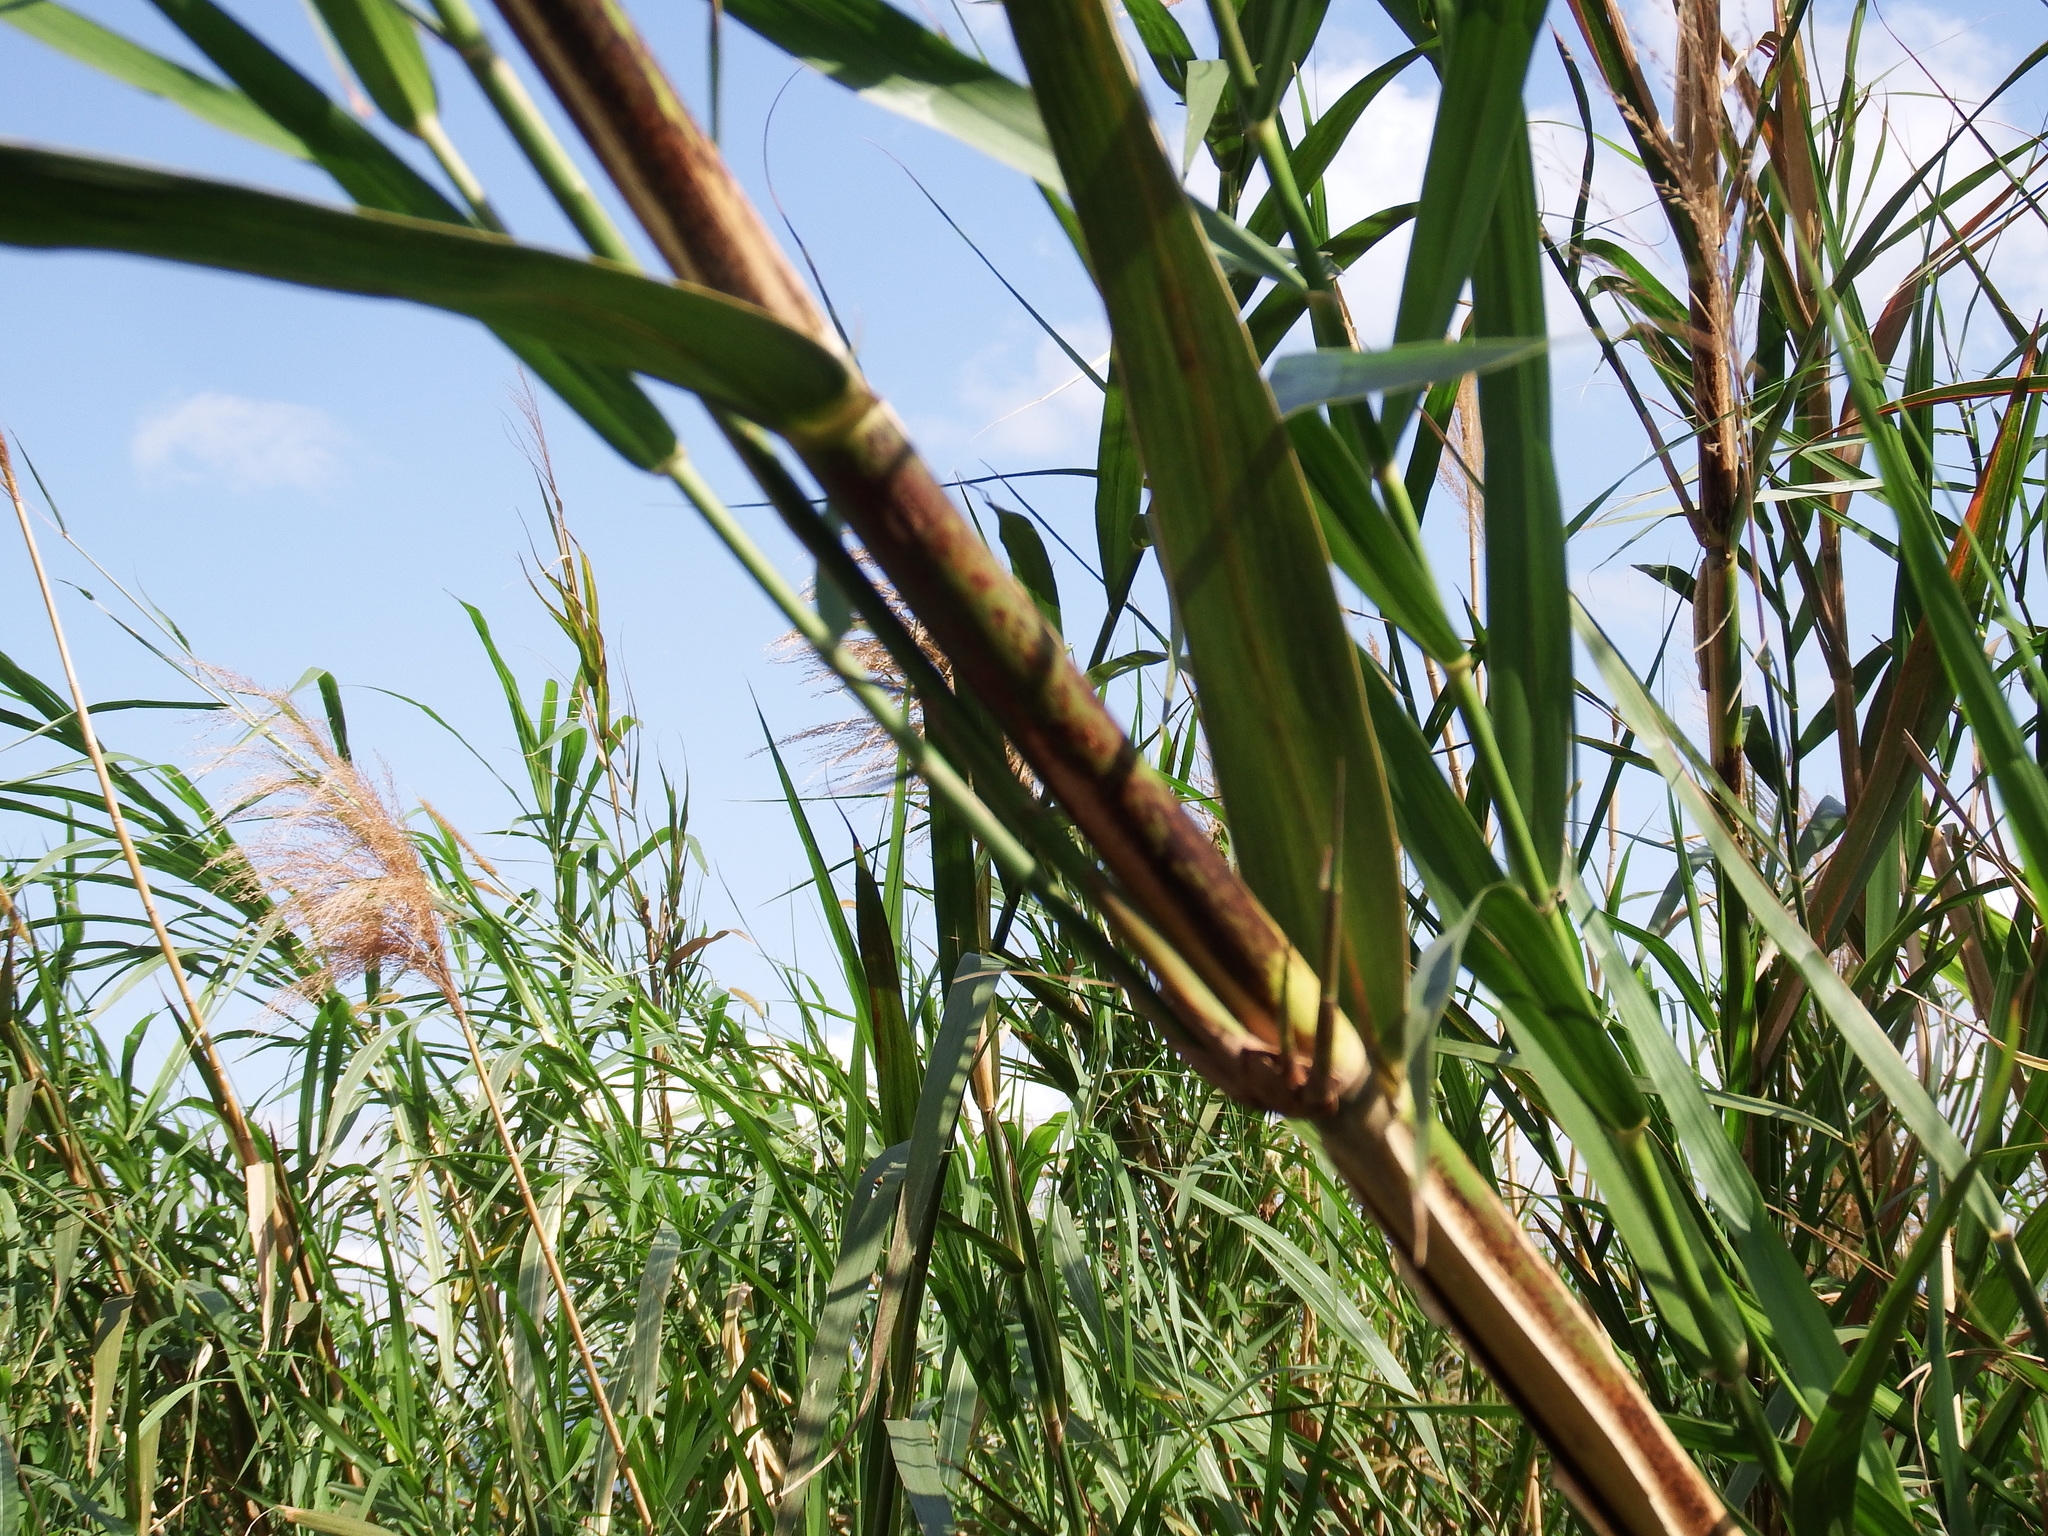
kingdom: Plantae
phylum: Tracheophyta
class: Liliopsida
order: Poales
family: Poaceae
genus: Phragmites
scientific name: Phragmites karka
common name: Tropical reed
